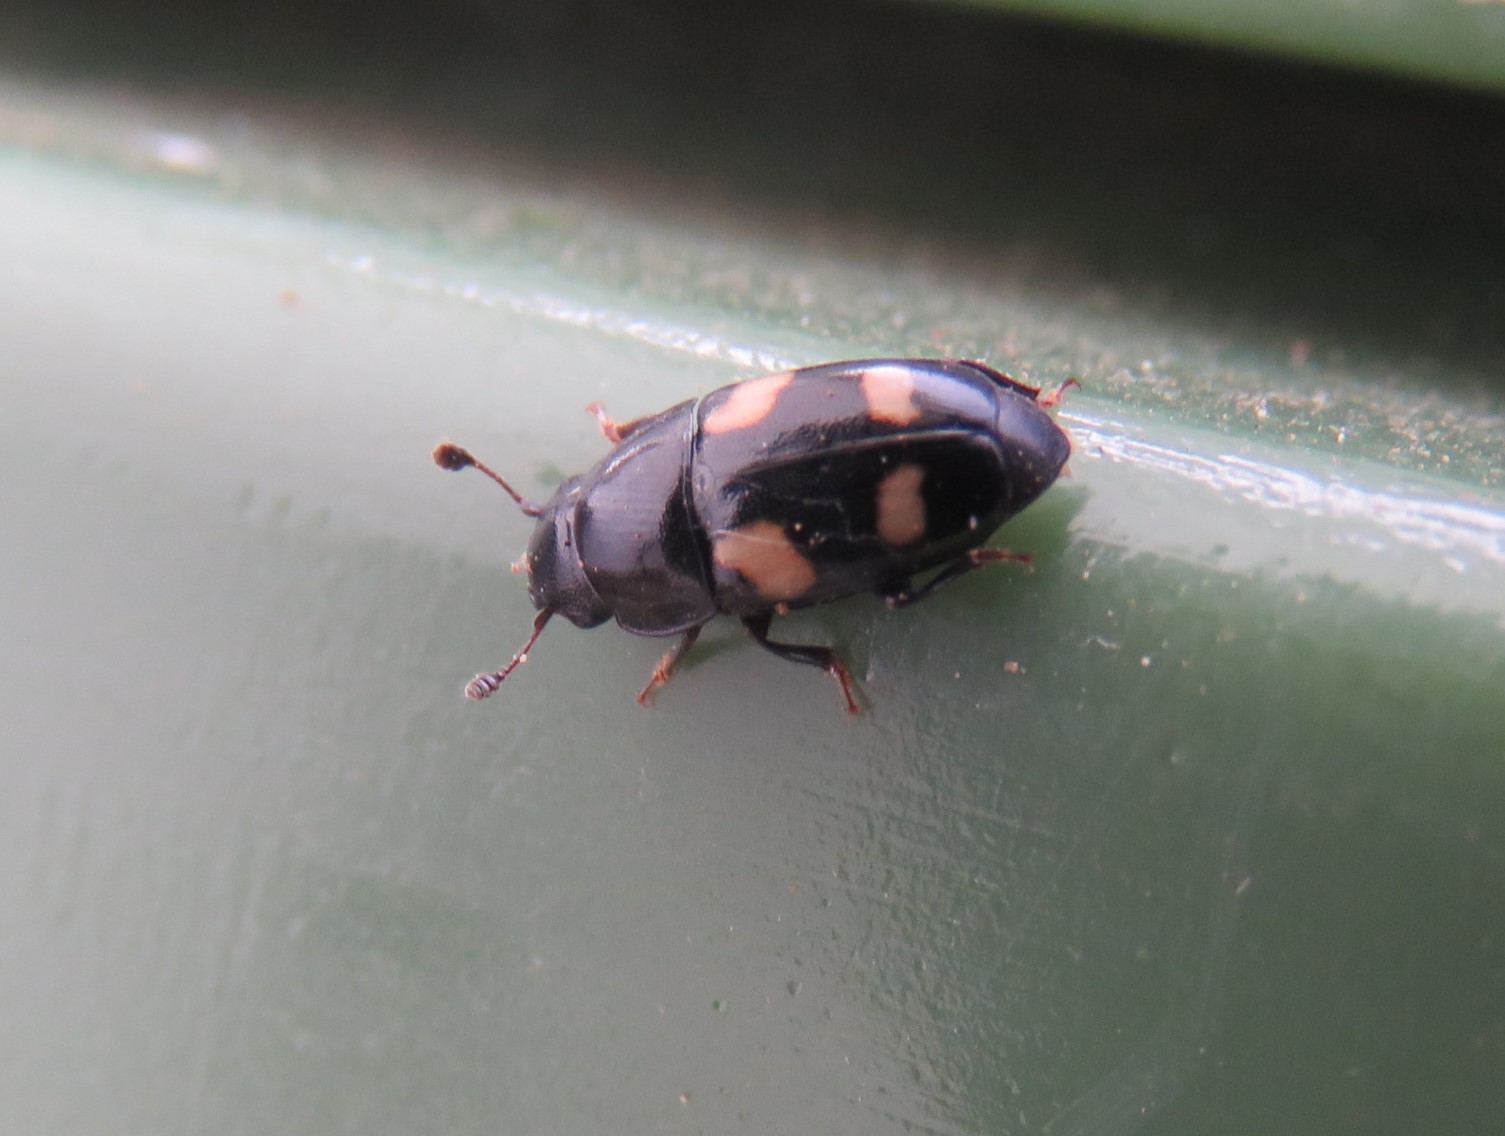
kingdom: Animalia
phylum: Arthropoda
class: Insecta
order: Coleoptera
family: Nitidulidae
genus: Glischrochilus
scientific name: Glischrochilus quadrisignatus
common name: Picnic beetle
